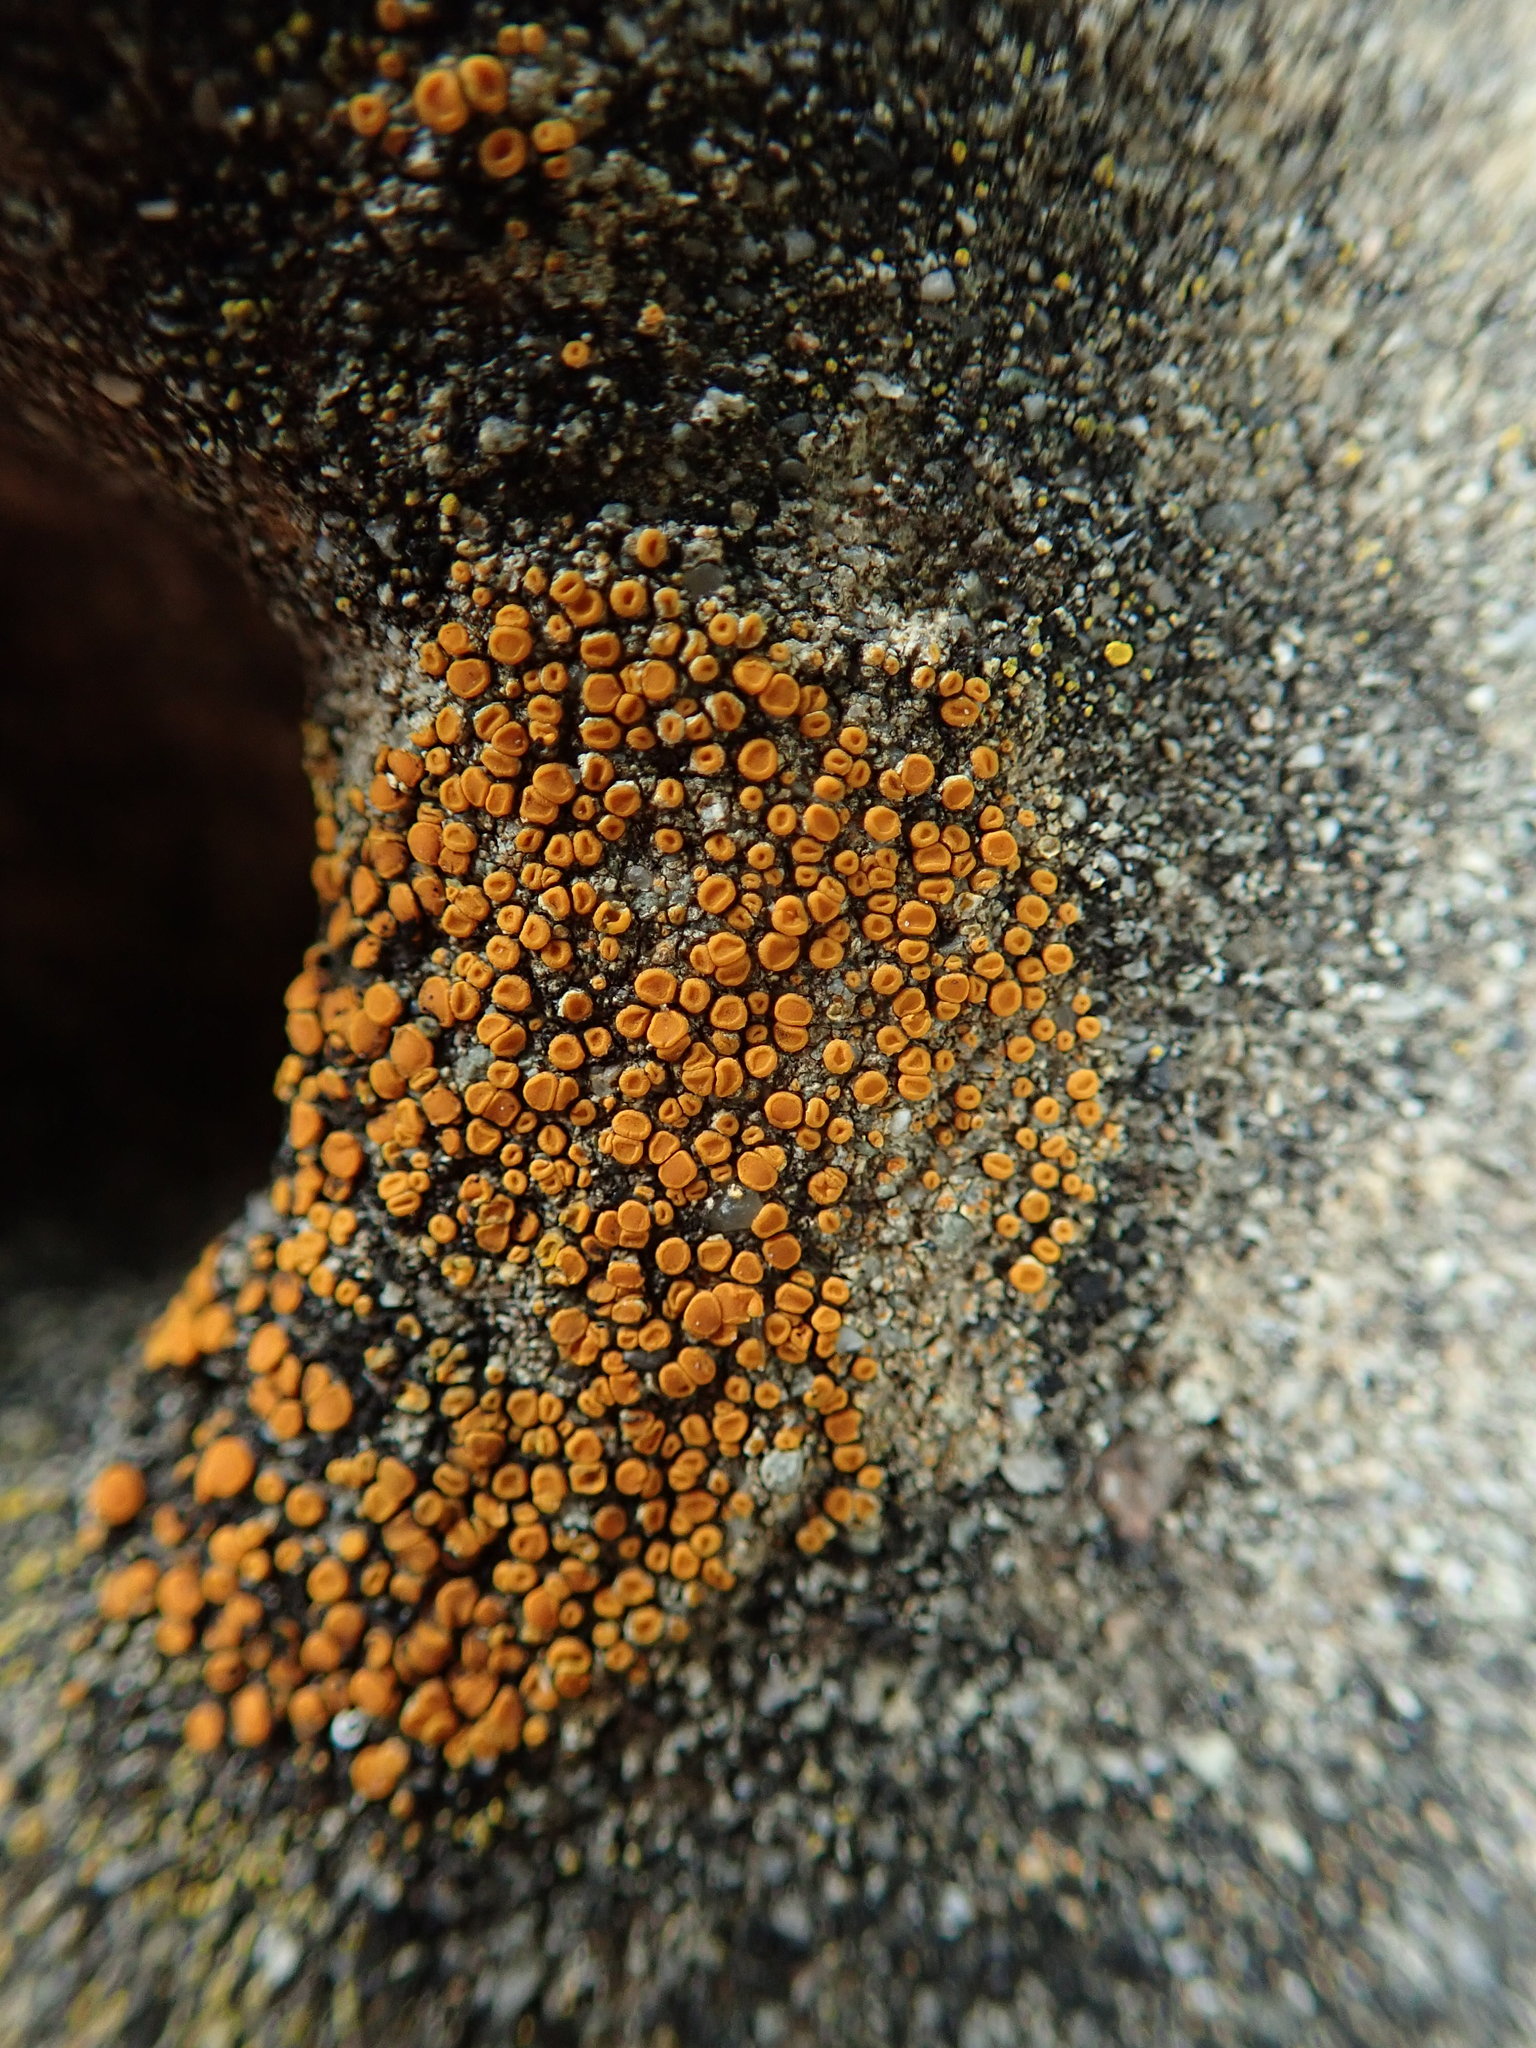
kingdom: Fungi
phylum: Ascomycota
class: Lecanoromycetes
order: Teloschistales
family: Teloschistaceae
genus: Tomnashia
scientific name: Tomnashia luteominia
